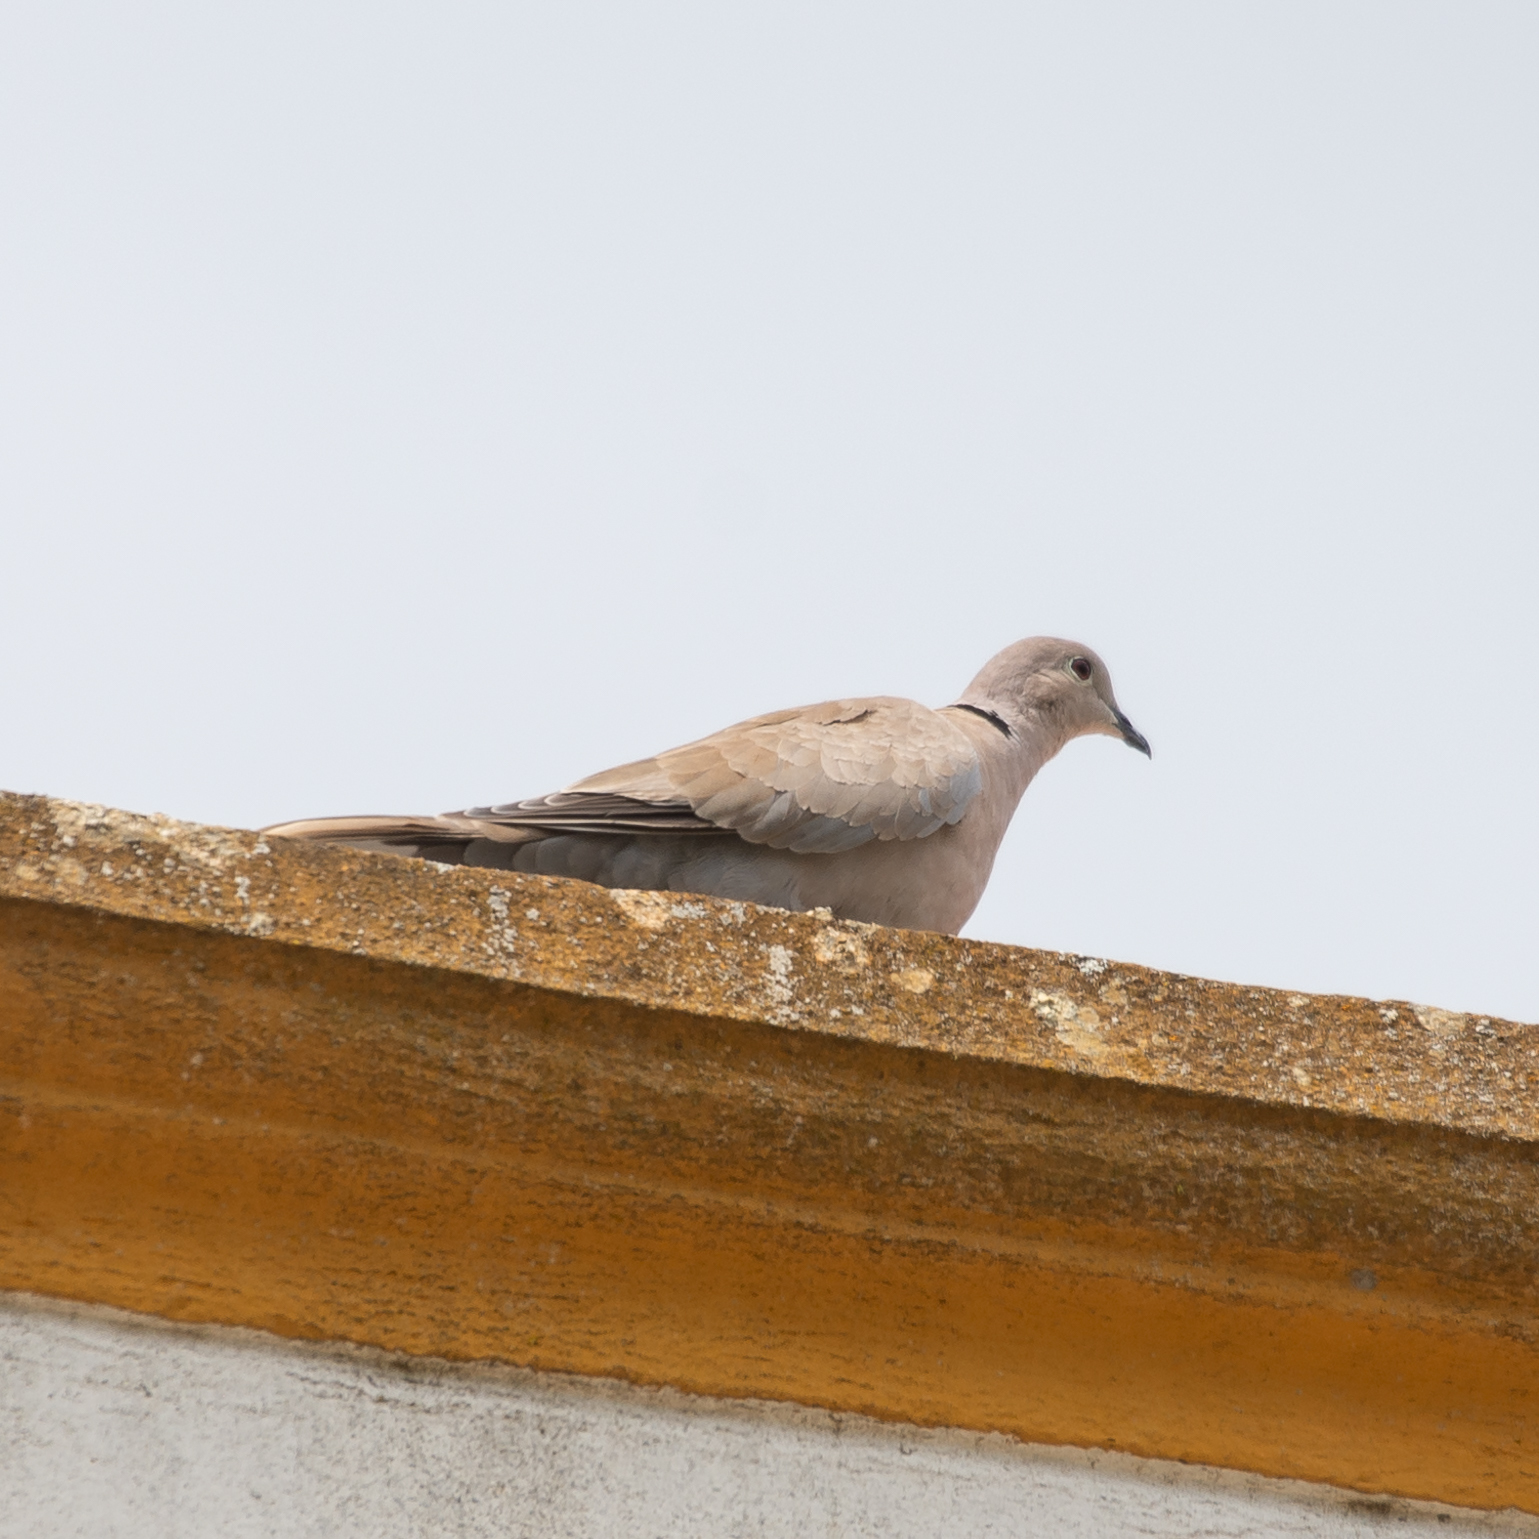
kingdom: Animalia
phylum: Chordata
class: Aves
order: Columbiformes
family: Columbidae
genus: Streptopelia
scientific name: Streptopelia decaocto
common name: Eurasian collared dove
